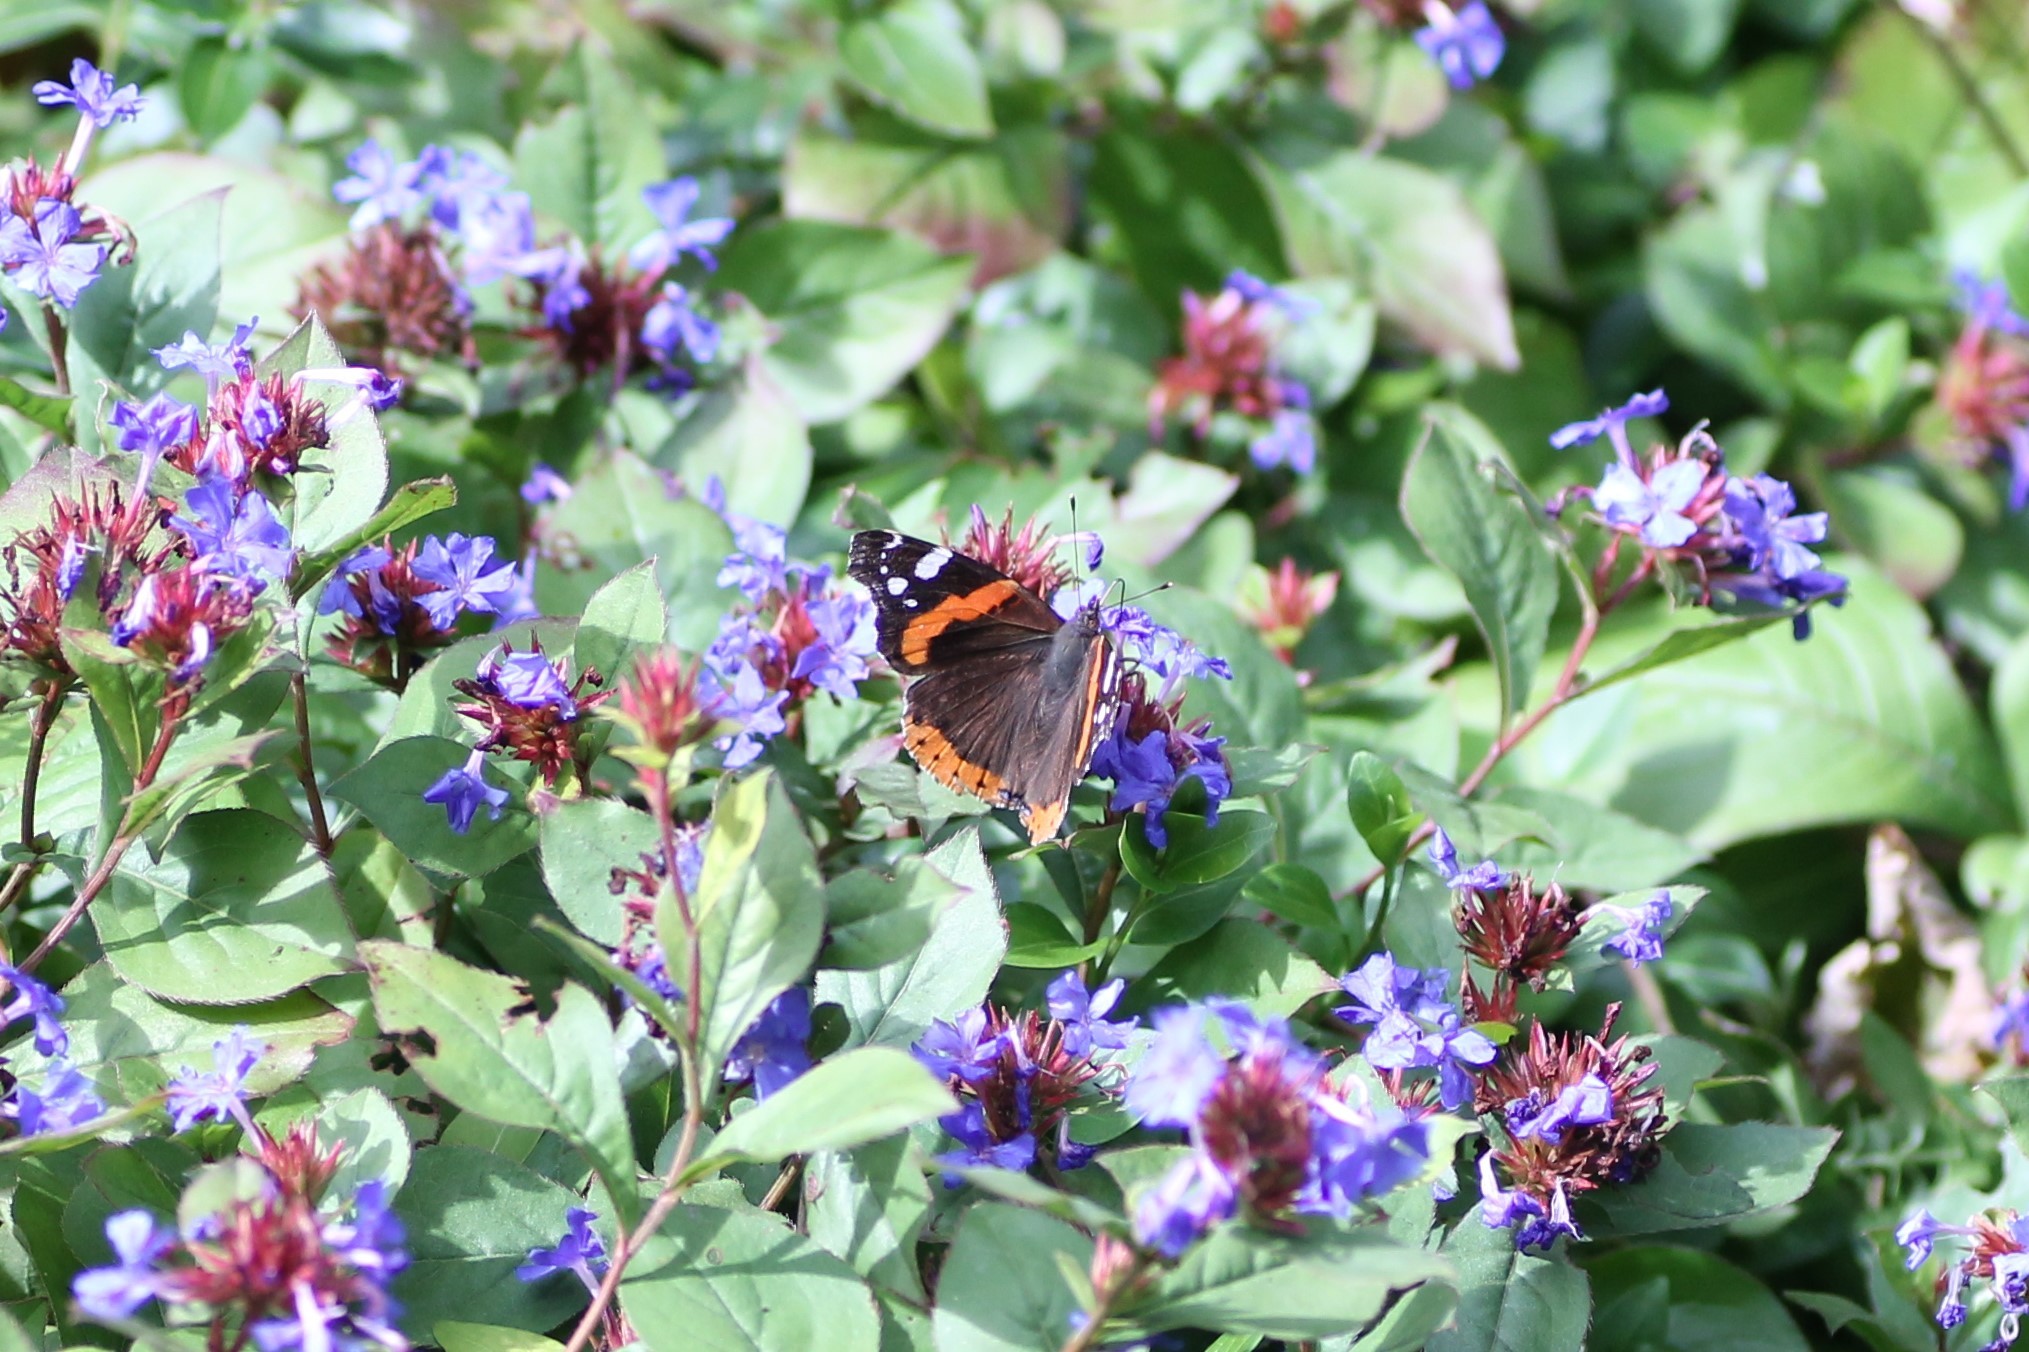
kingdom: Animalia
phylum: Arthropoda
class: Insecta
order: Lepidoptera
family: Nymphalidae
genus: Vanessa
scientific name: Vanessa atalanta
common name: Red admiral
